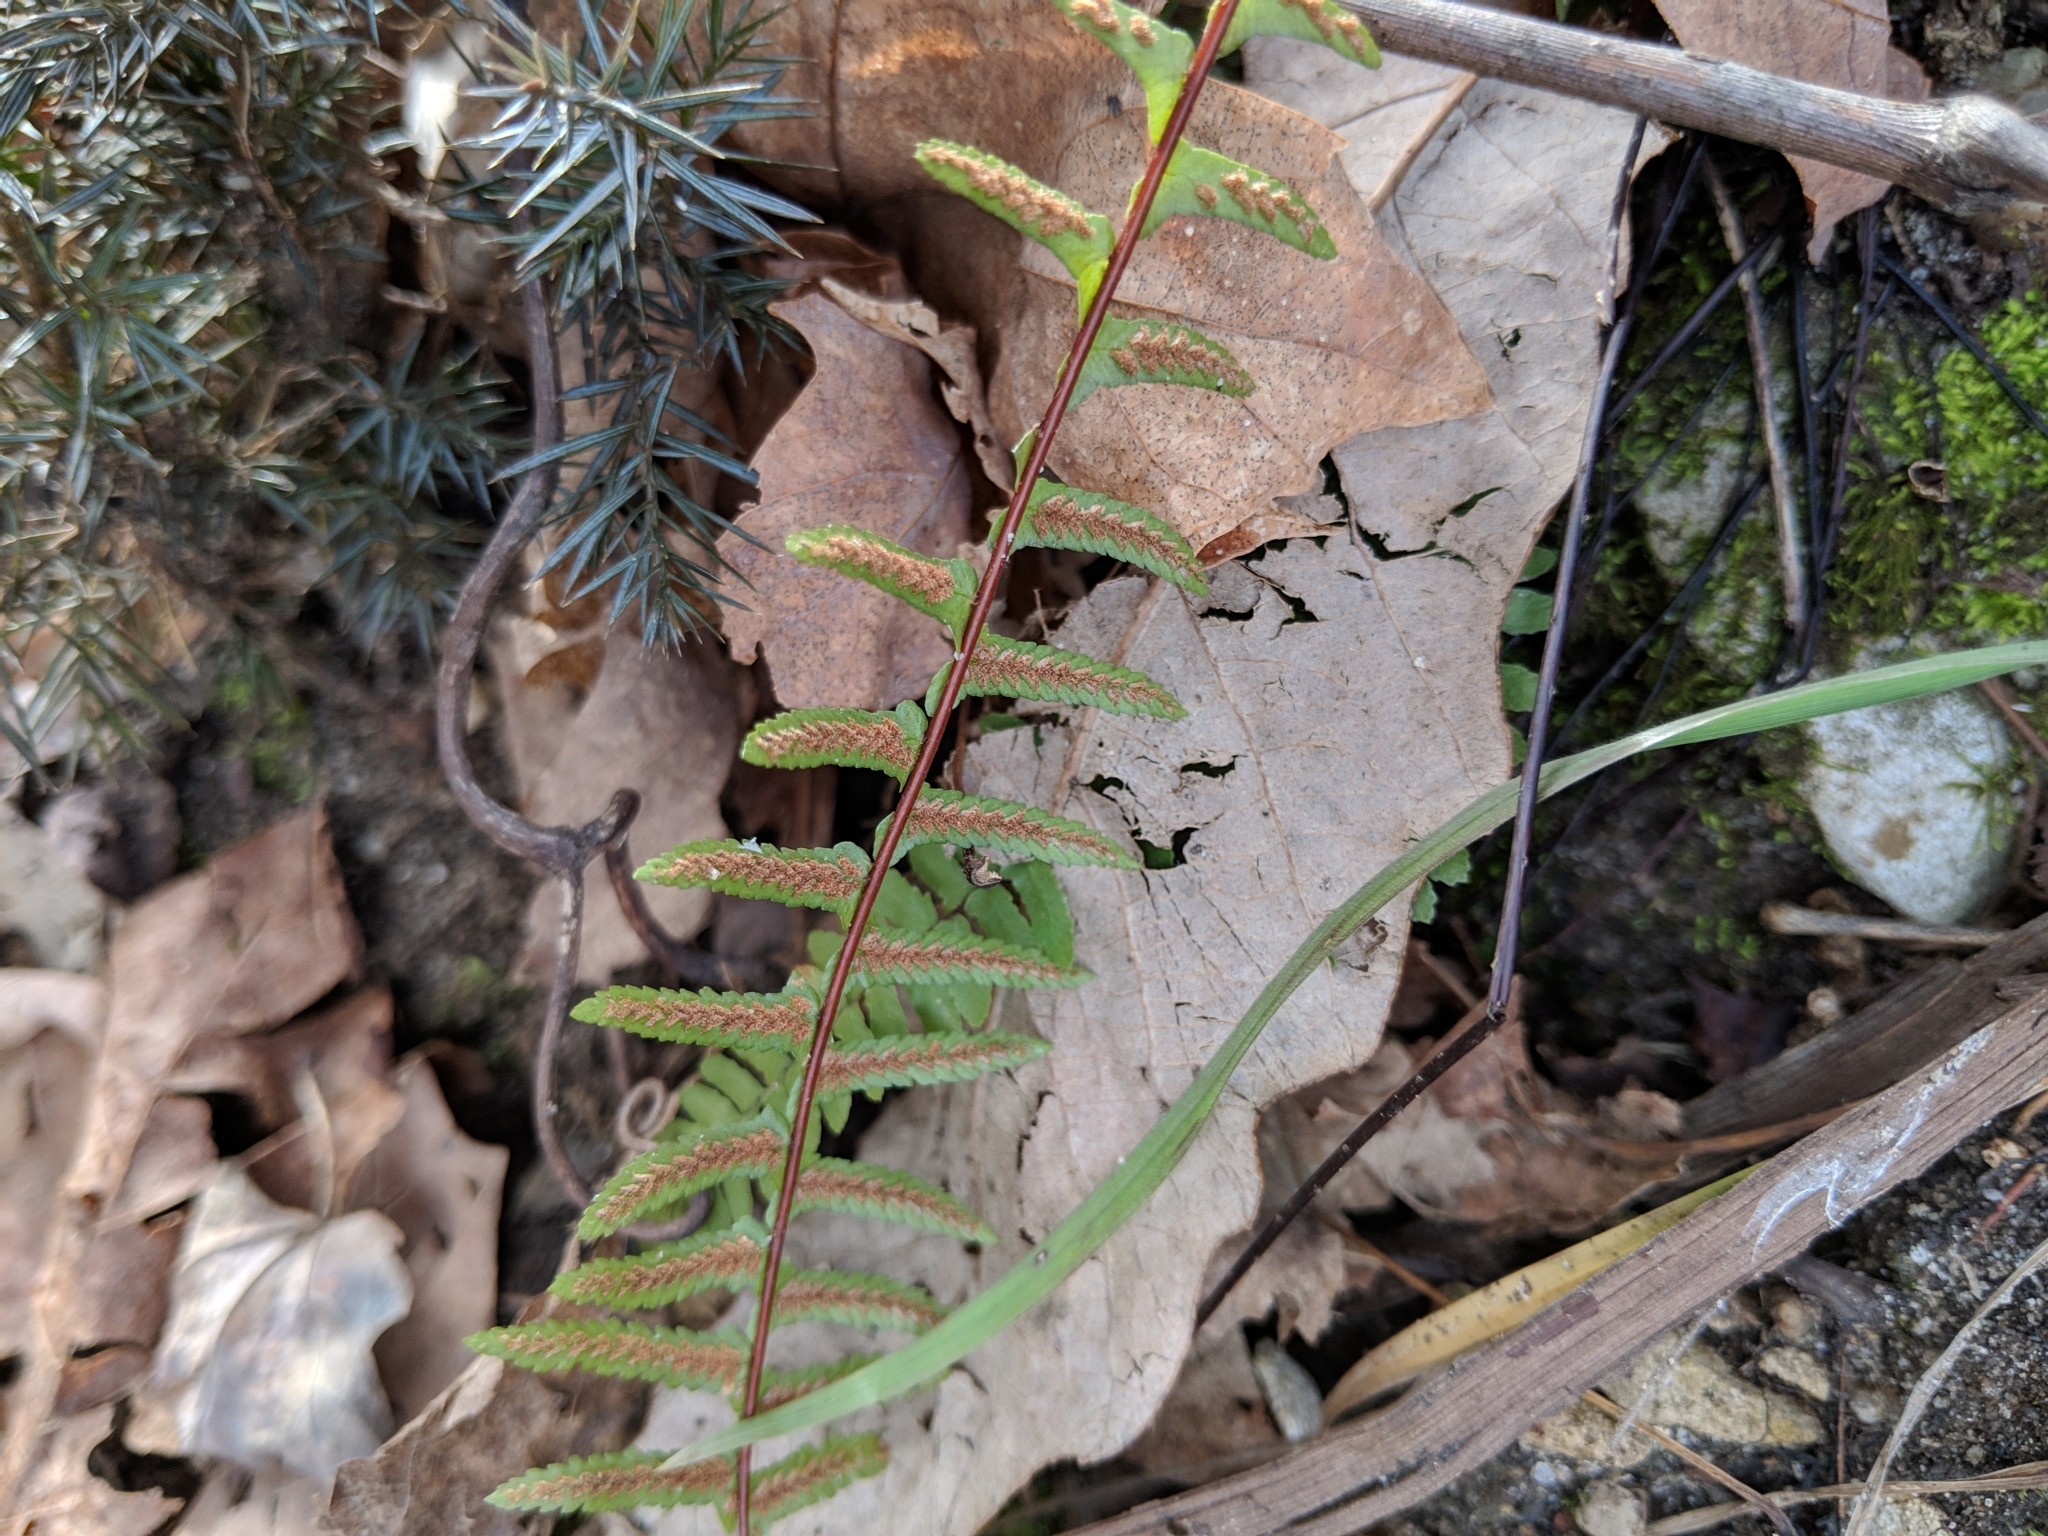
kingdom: Plantae
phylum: Tracheophyta
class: Polypodiopsida
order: Polypodiales
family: Aspleniaceae
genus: Asplenium
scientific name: Asplenium platyneuron
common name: Ebony spleenwort
